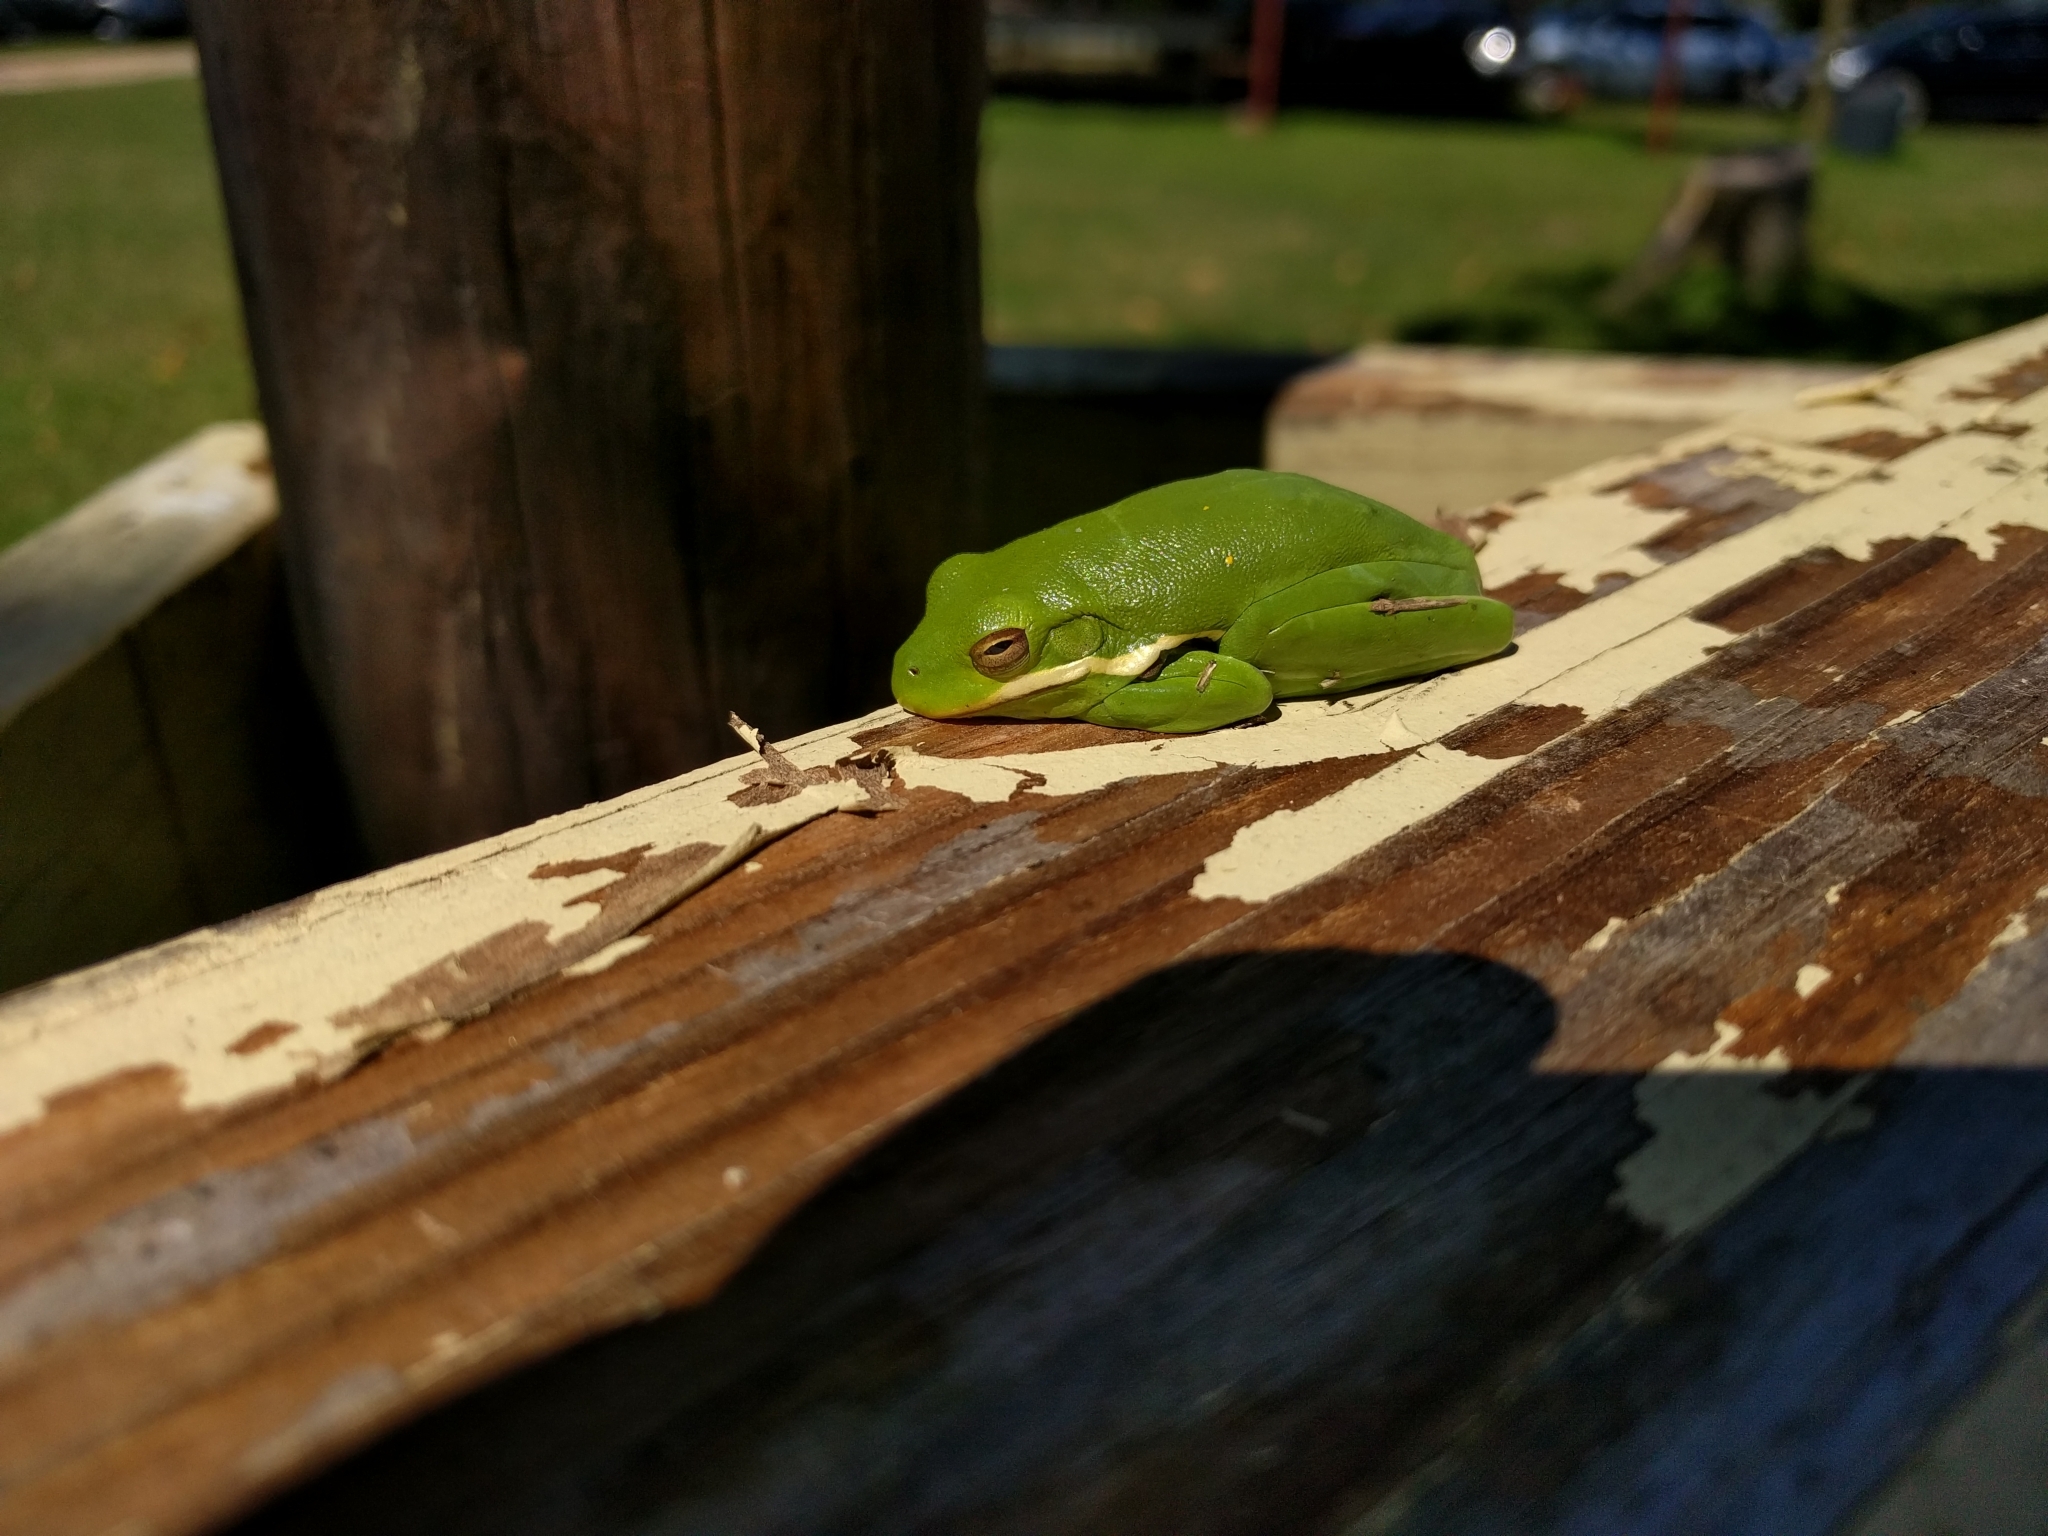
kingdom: Animalia
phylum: Chordata
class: Amphibia
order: Anura
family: Hylidae
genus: Dryophytes
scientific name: Dryophytes cinereus
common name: Green treefrog
